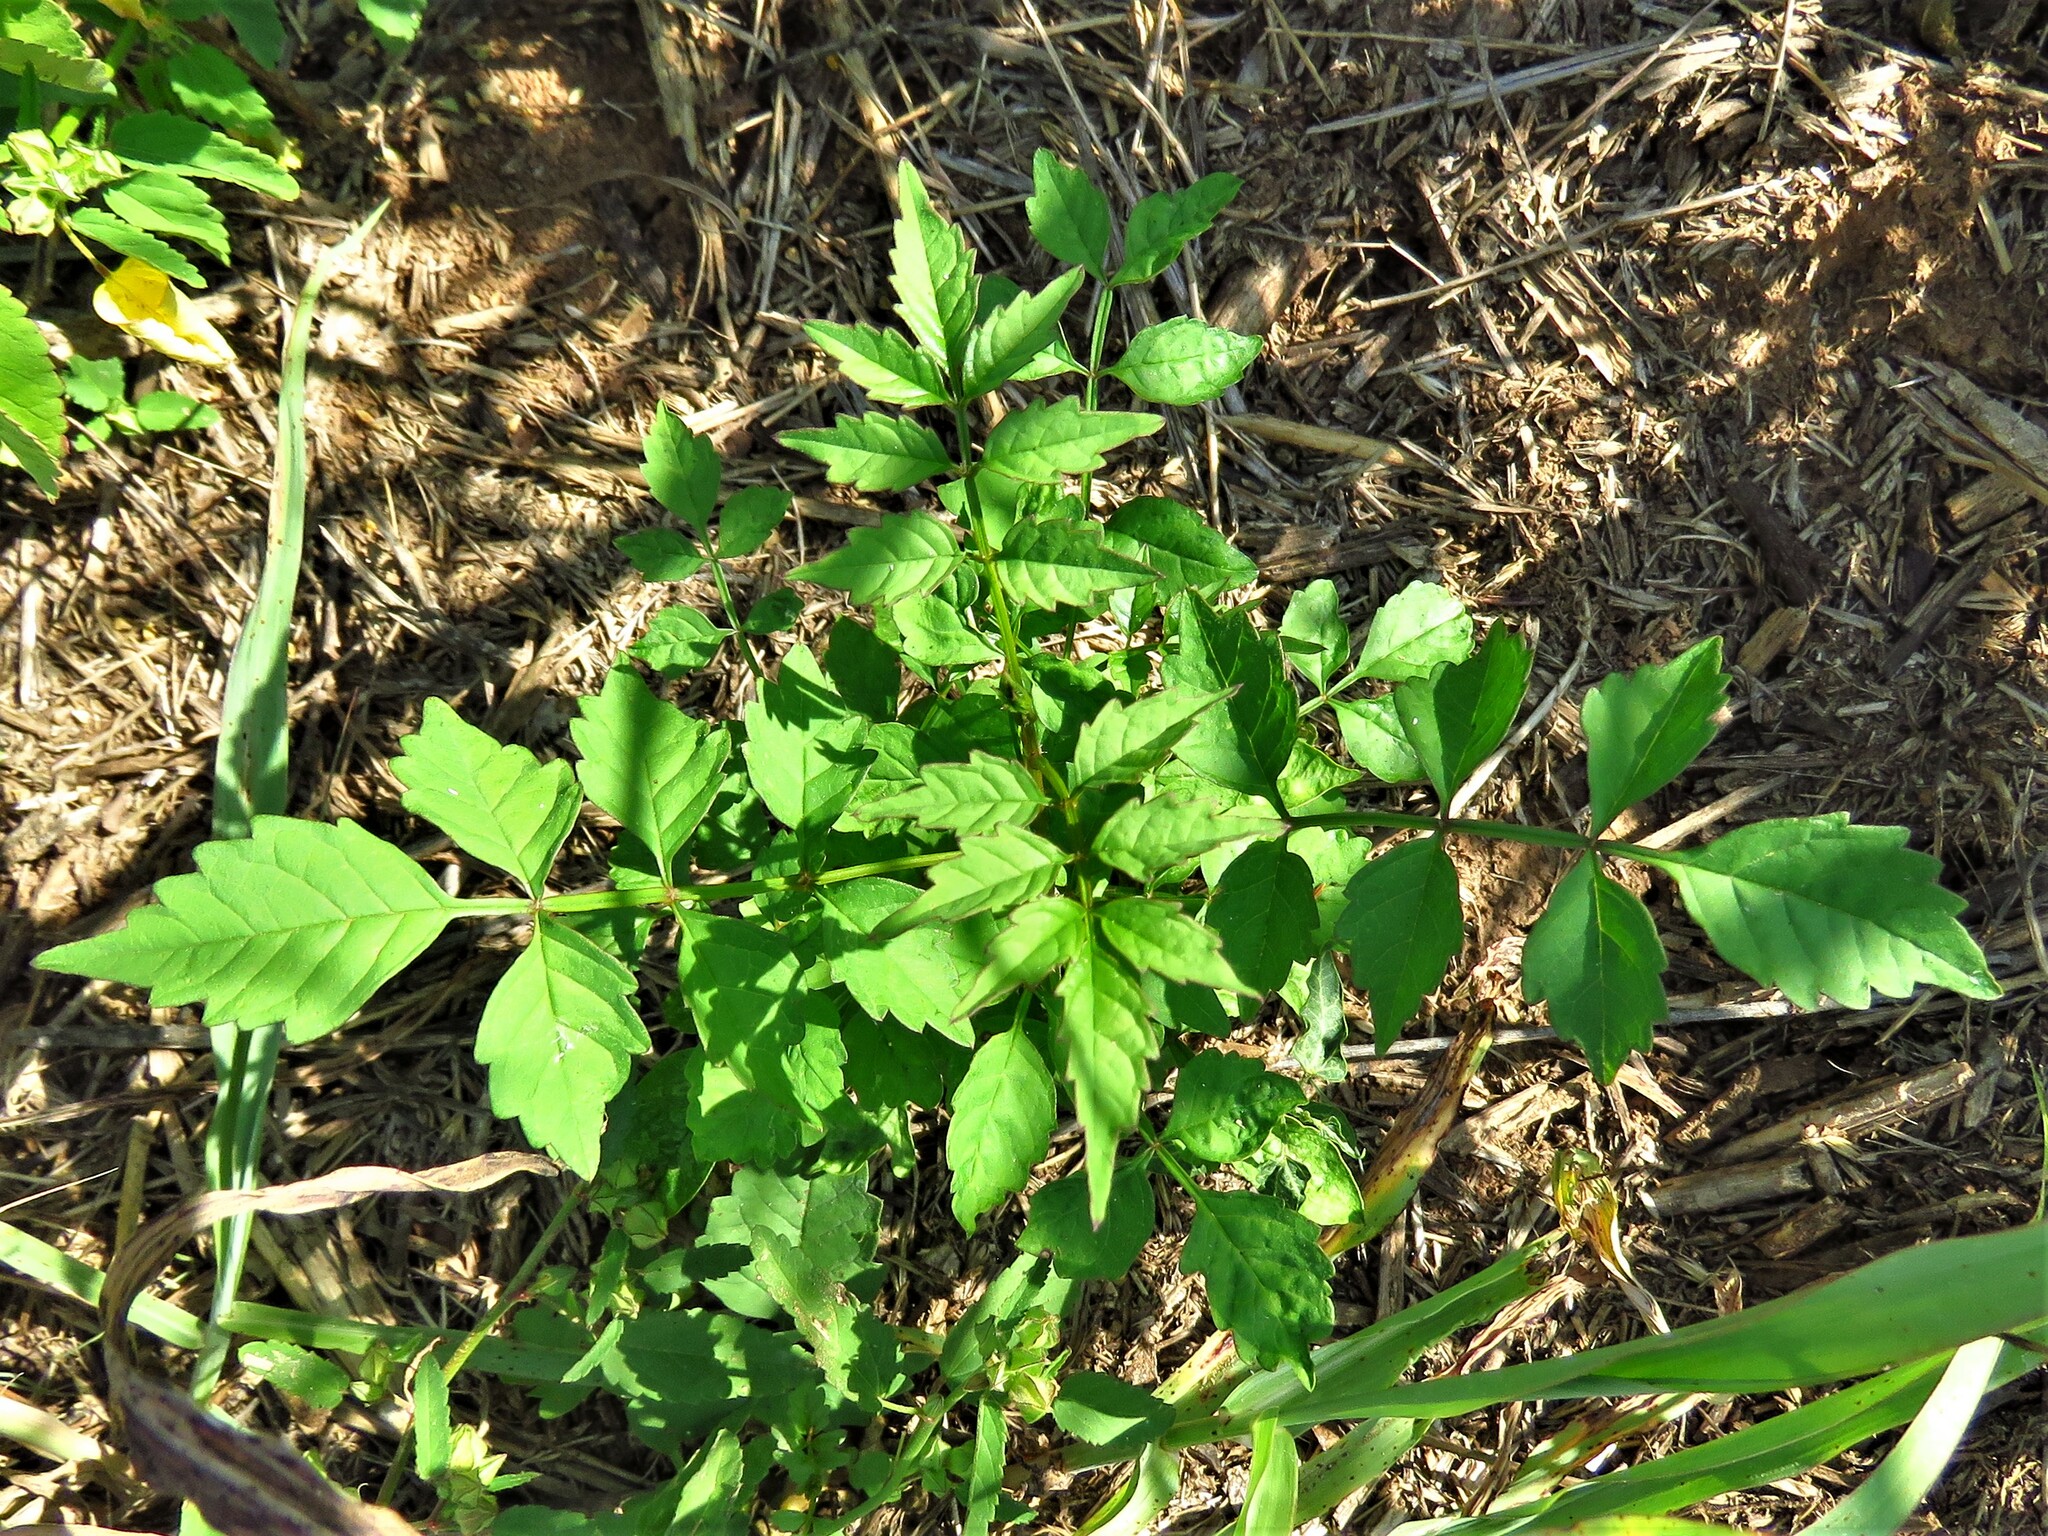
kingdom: Plantae
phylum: Tracheophyta
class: Magnoliopsida
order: Lamiales
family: Bignoniaceae
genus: Campsis
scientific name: Campsis radicans
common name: Trumpet-creeper
